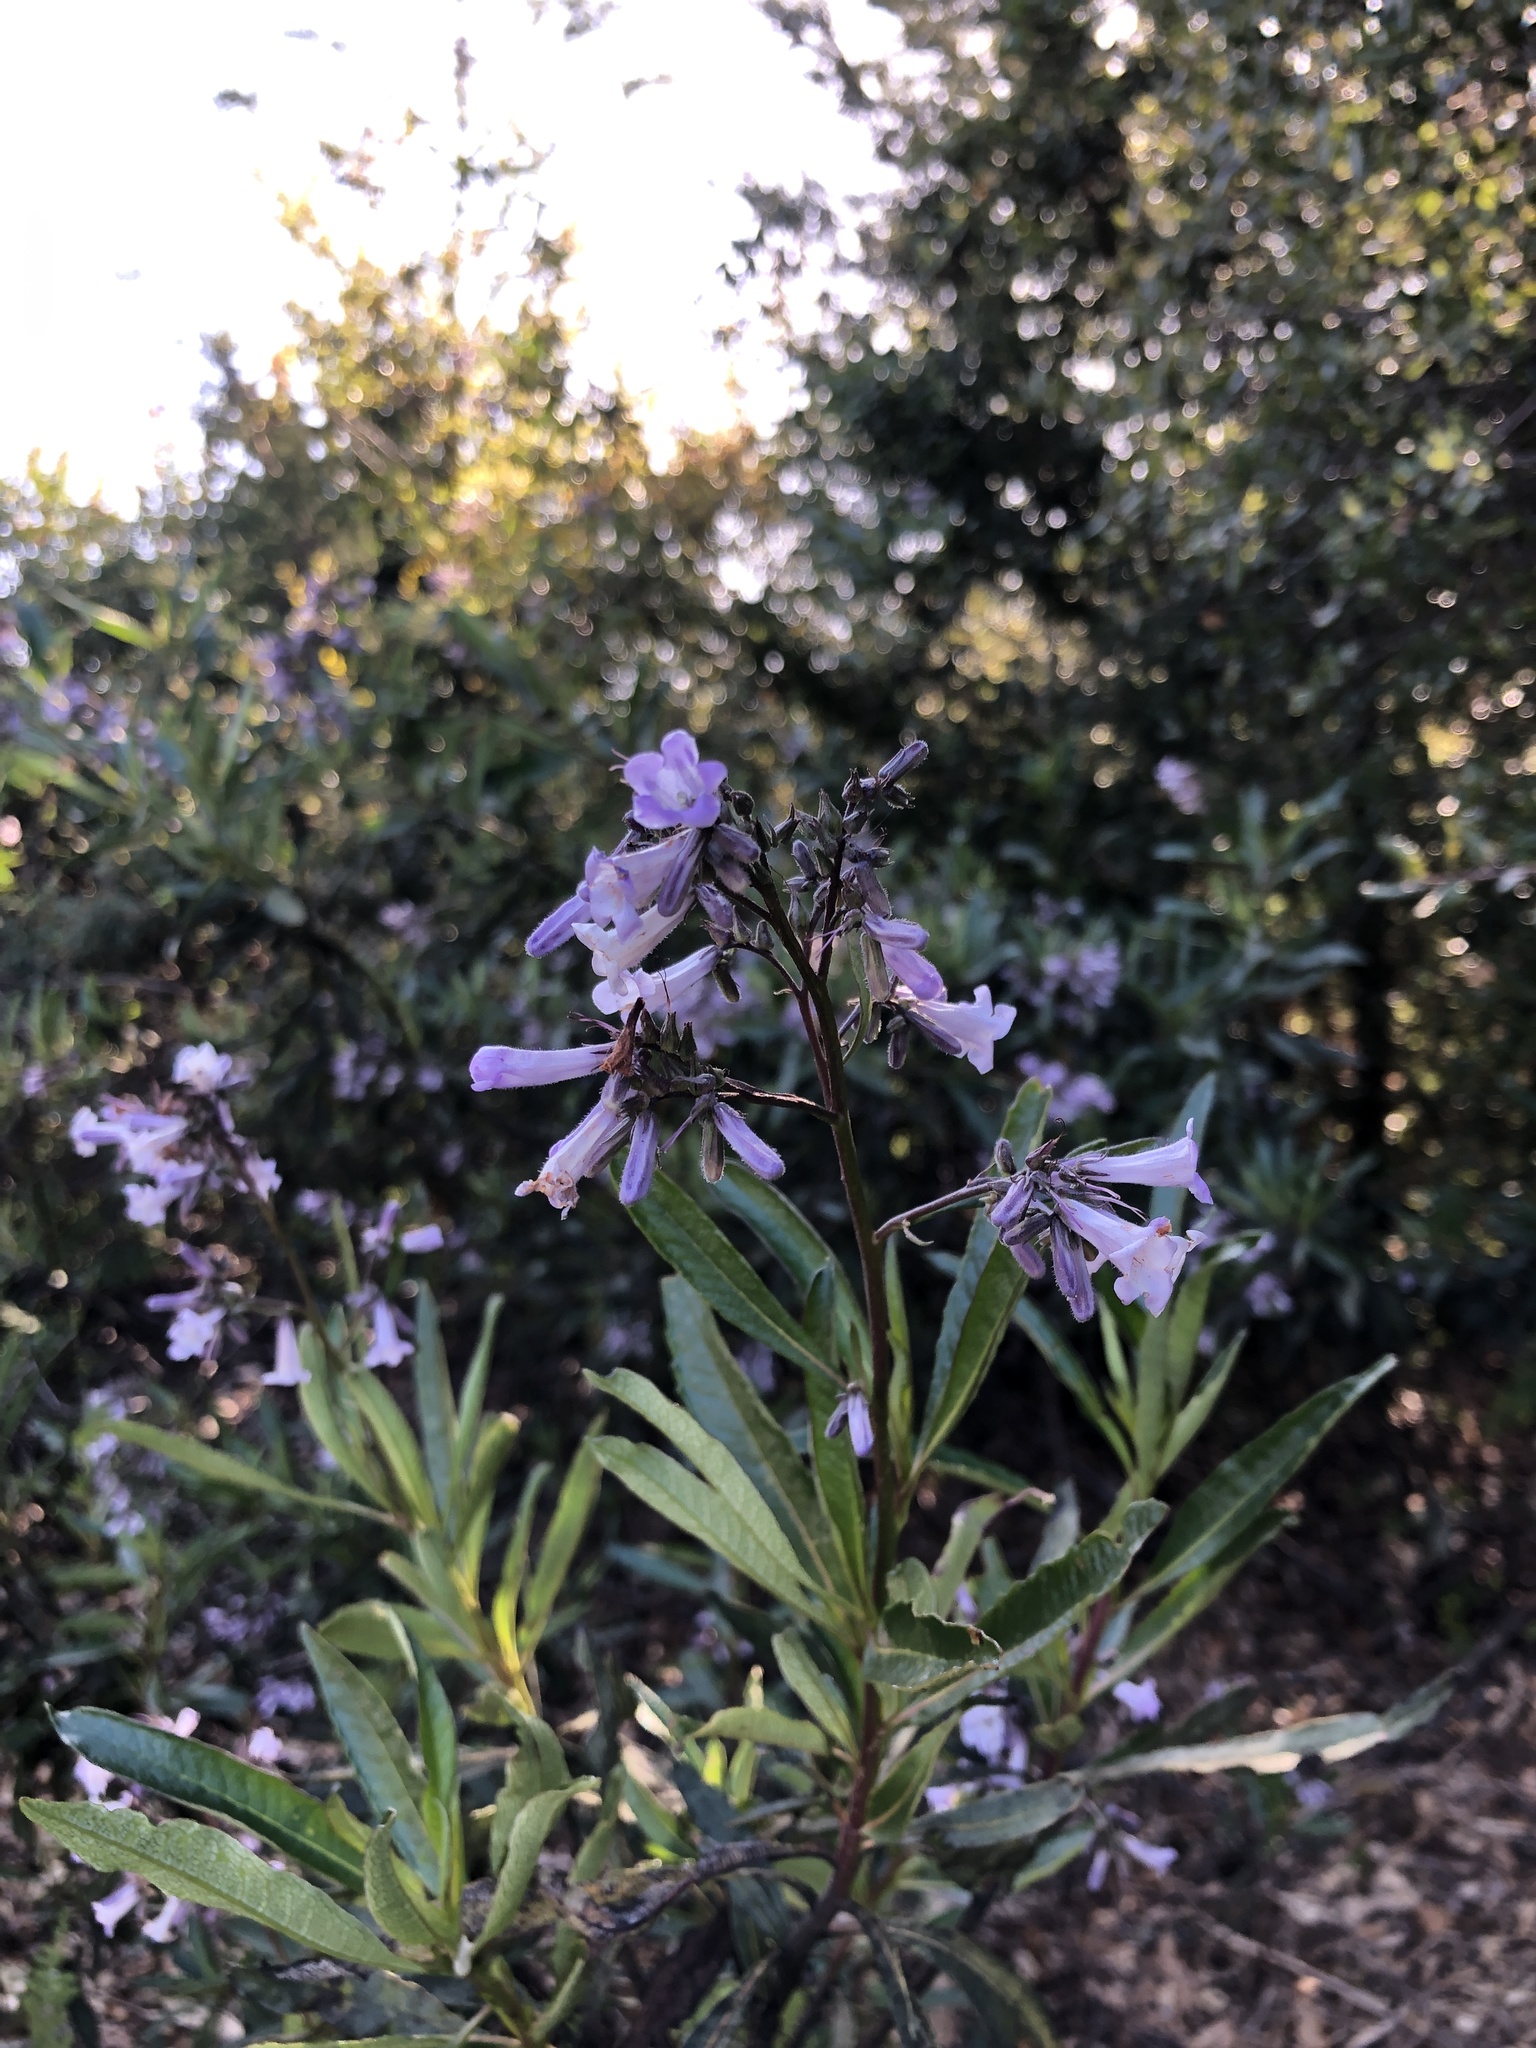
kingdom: Plantae
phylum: Tracheophyta
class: Magnoliopsida
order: Boraginales
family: Namaceae
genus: Eriodictyon
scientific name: Eriodictyon californicum
